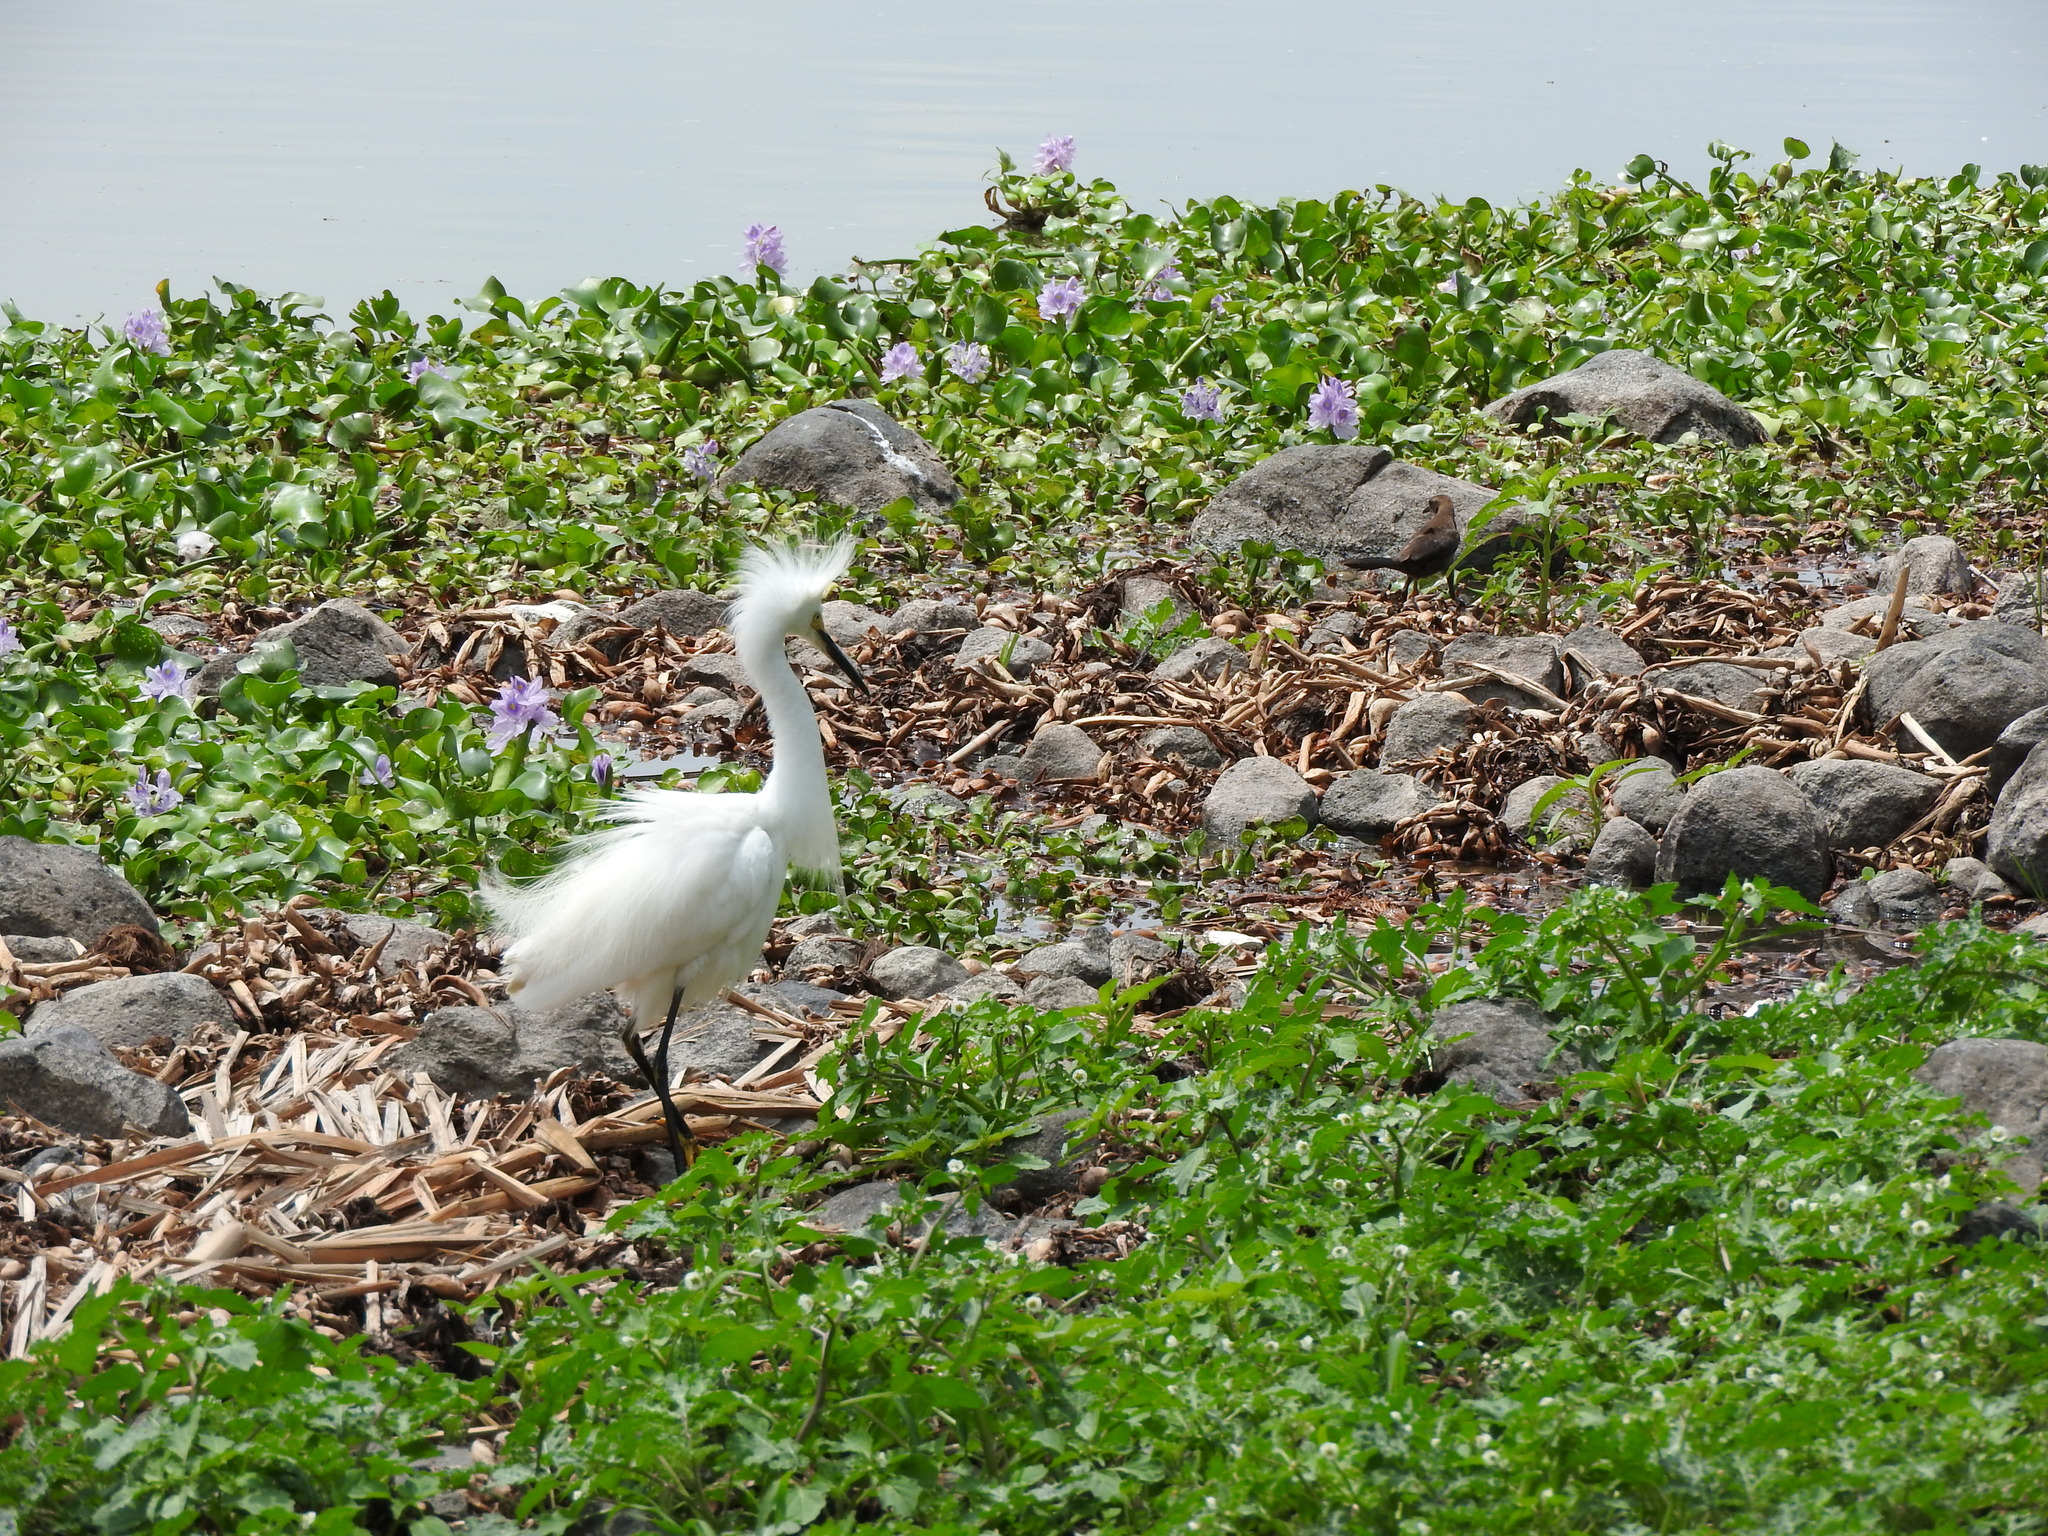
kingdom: Animalia
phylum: Chordata
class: Aves
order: Pelecaniformes
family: Ardeidae
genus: Egretta
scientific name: Egretta thula
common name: Snowy egret
